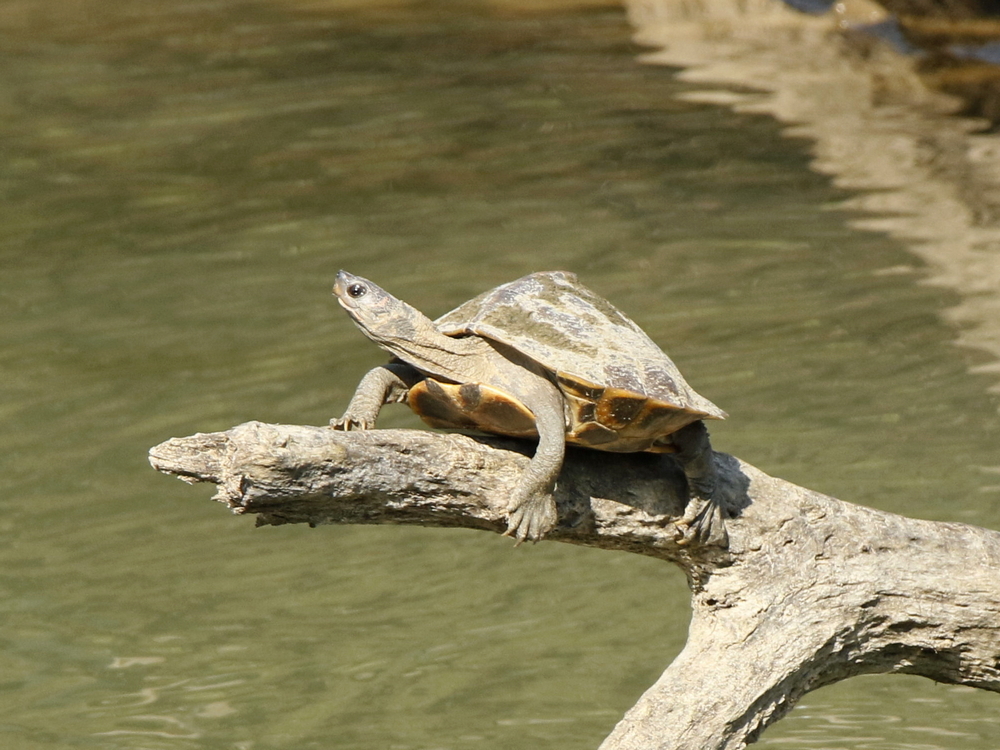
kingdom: Animalia
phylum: Chordata
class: Testudines
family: Geoemydidae
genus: Pangshura
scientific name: Pangshura sylhetensis
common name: Assam roofed turtle
